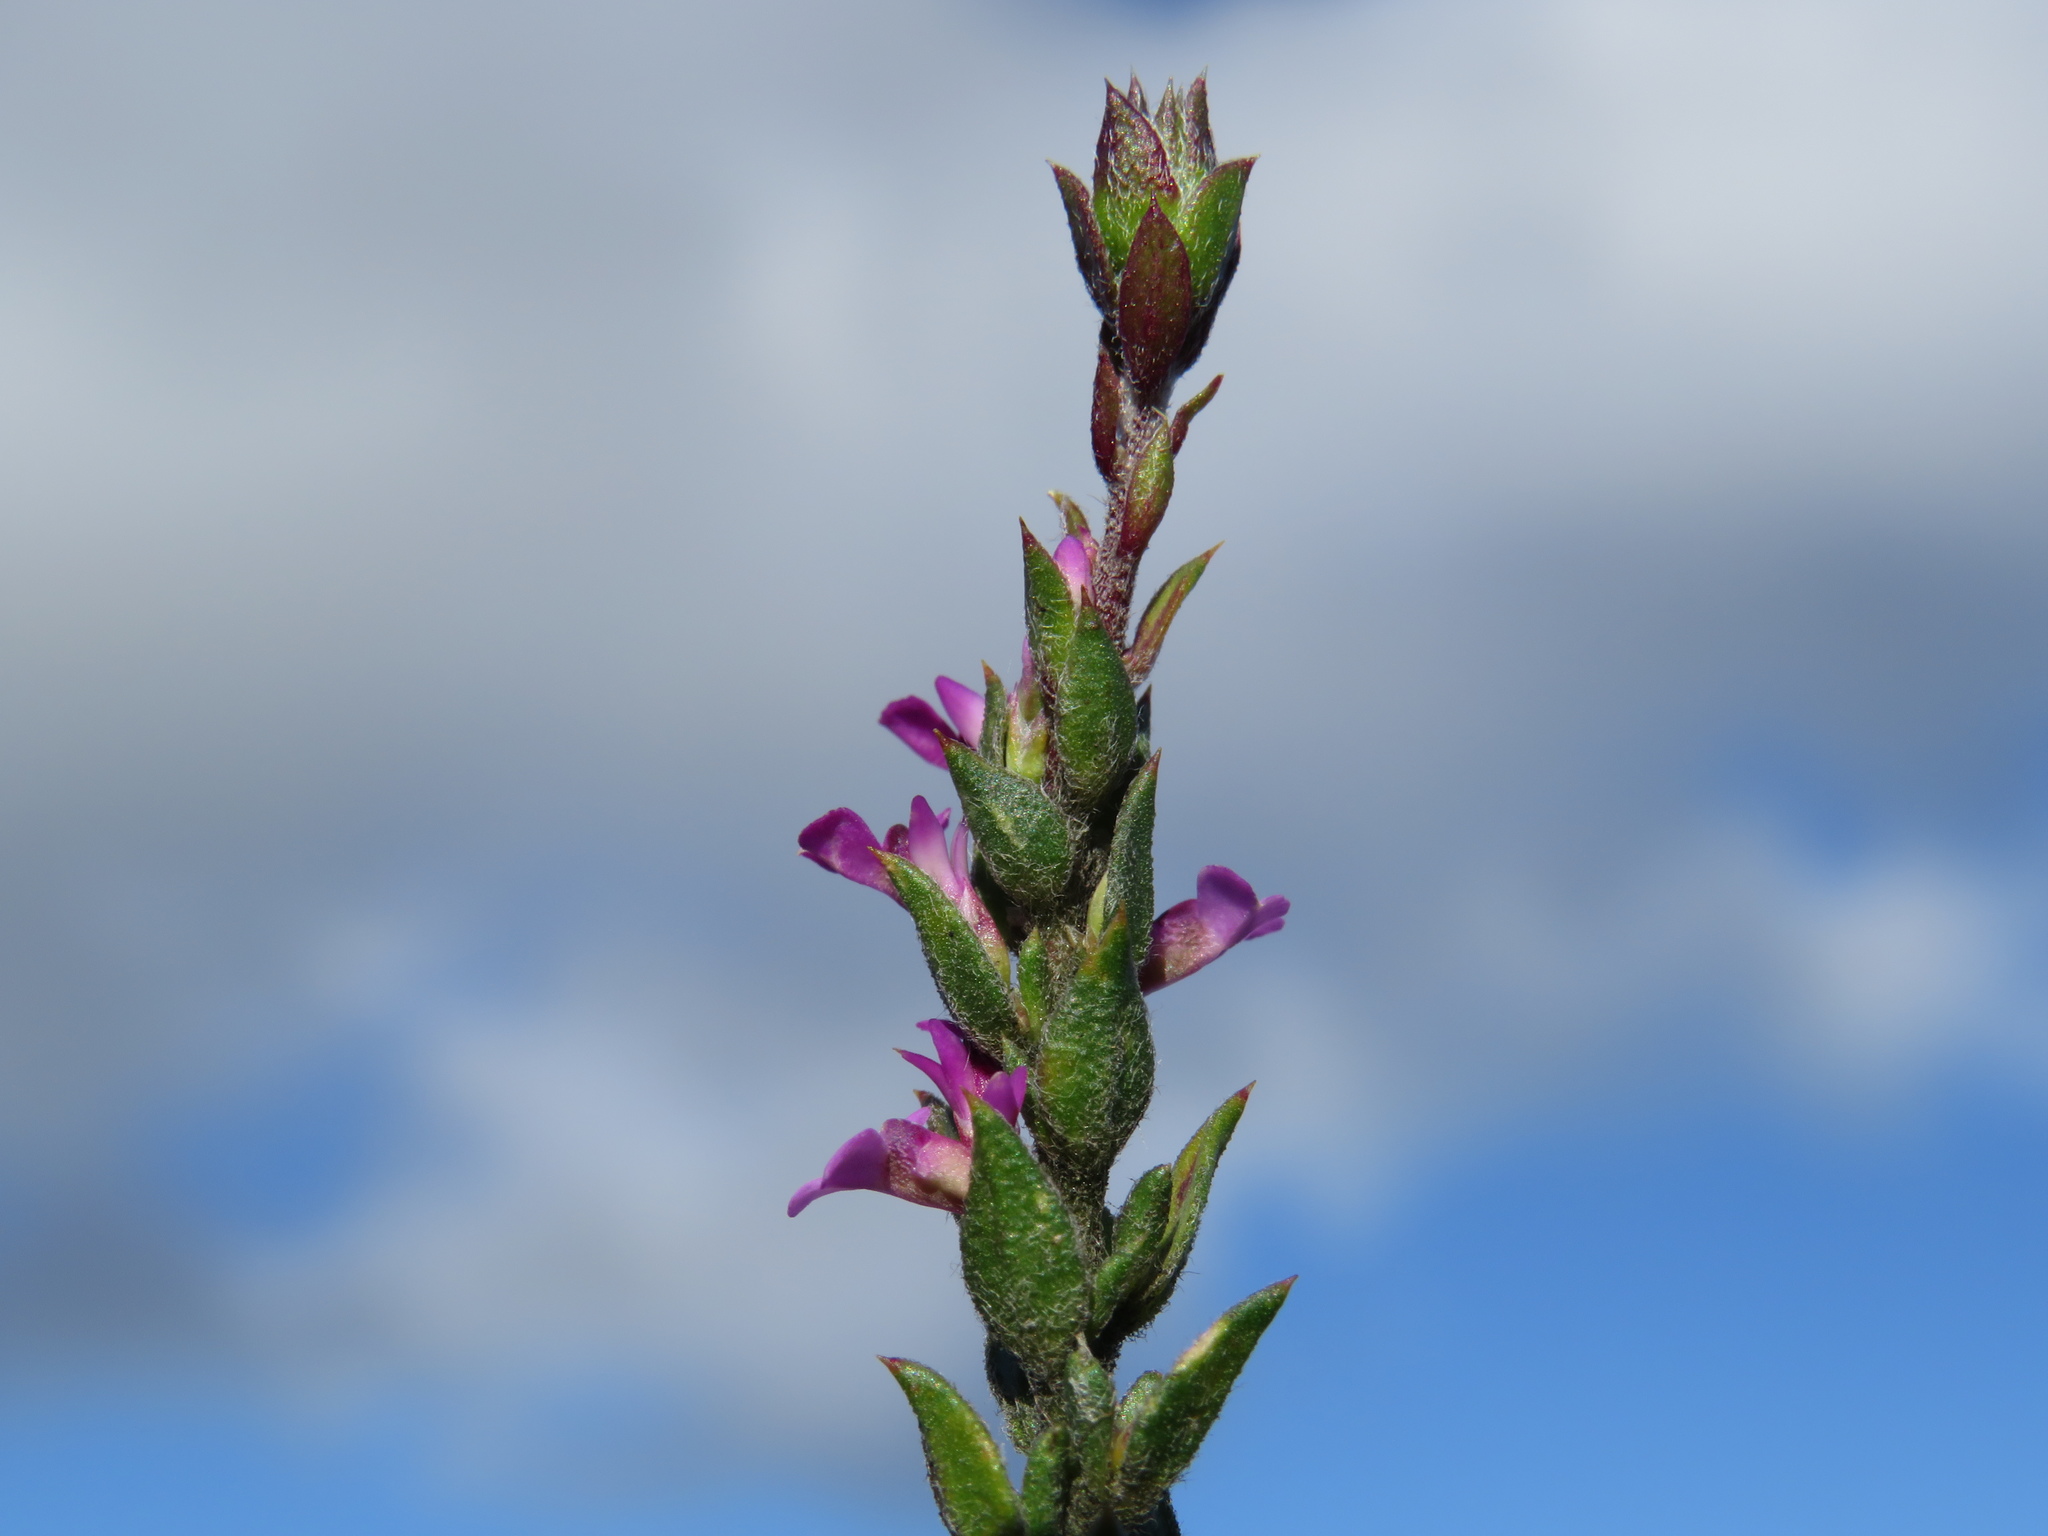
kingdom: Plantae
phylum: Tracheophyta
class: Magnoliopsida
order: Fabales
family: Polygalaceae
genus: Muraltia
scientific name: Muraltia
